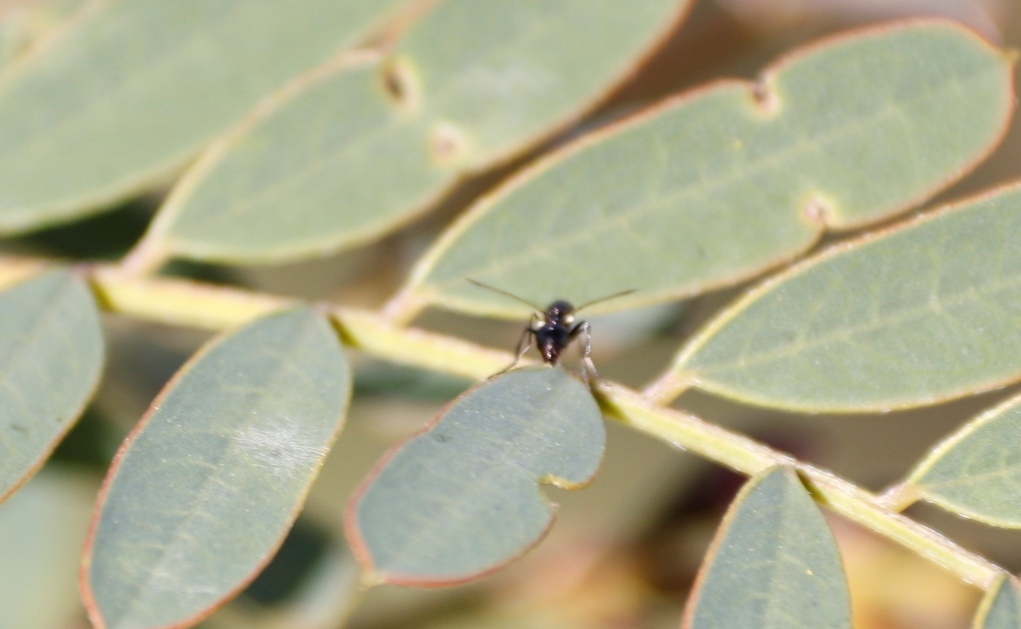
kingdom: Plantae
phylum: Tracheophyta
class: Magnoliopsida
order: Fabales
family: Fabaceae
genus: Sesbania
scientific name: Sesbania punicea
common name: Rattlebox
